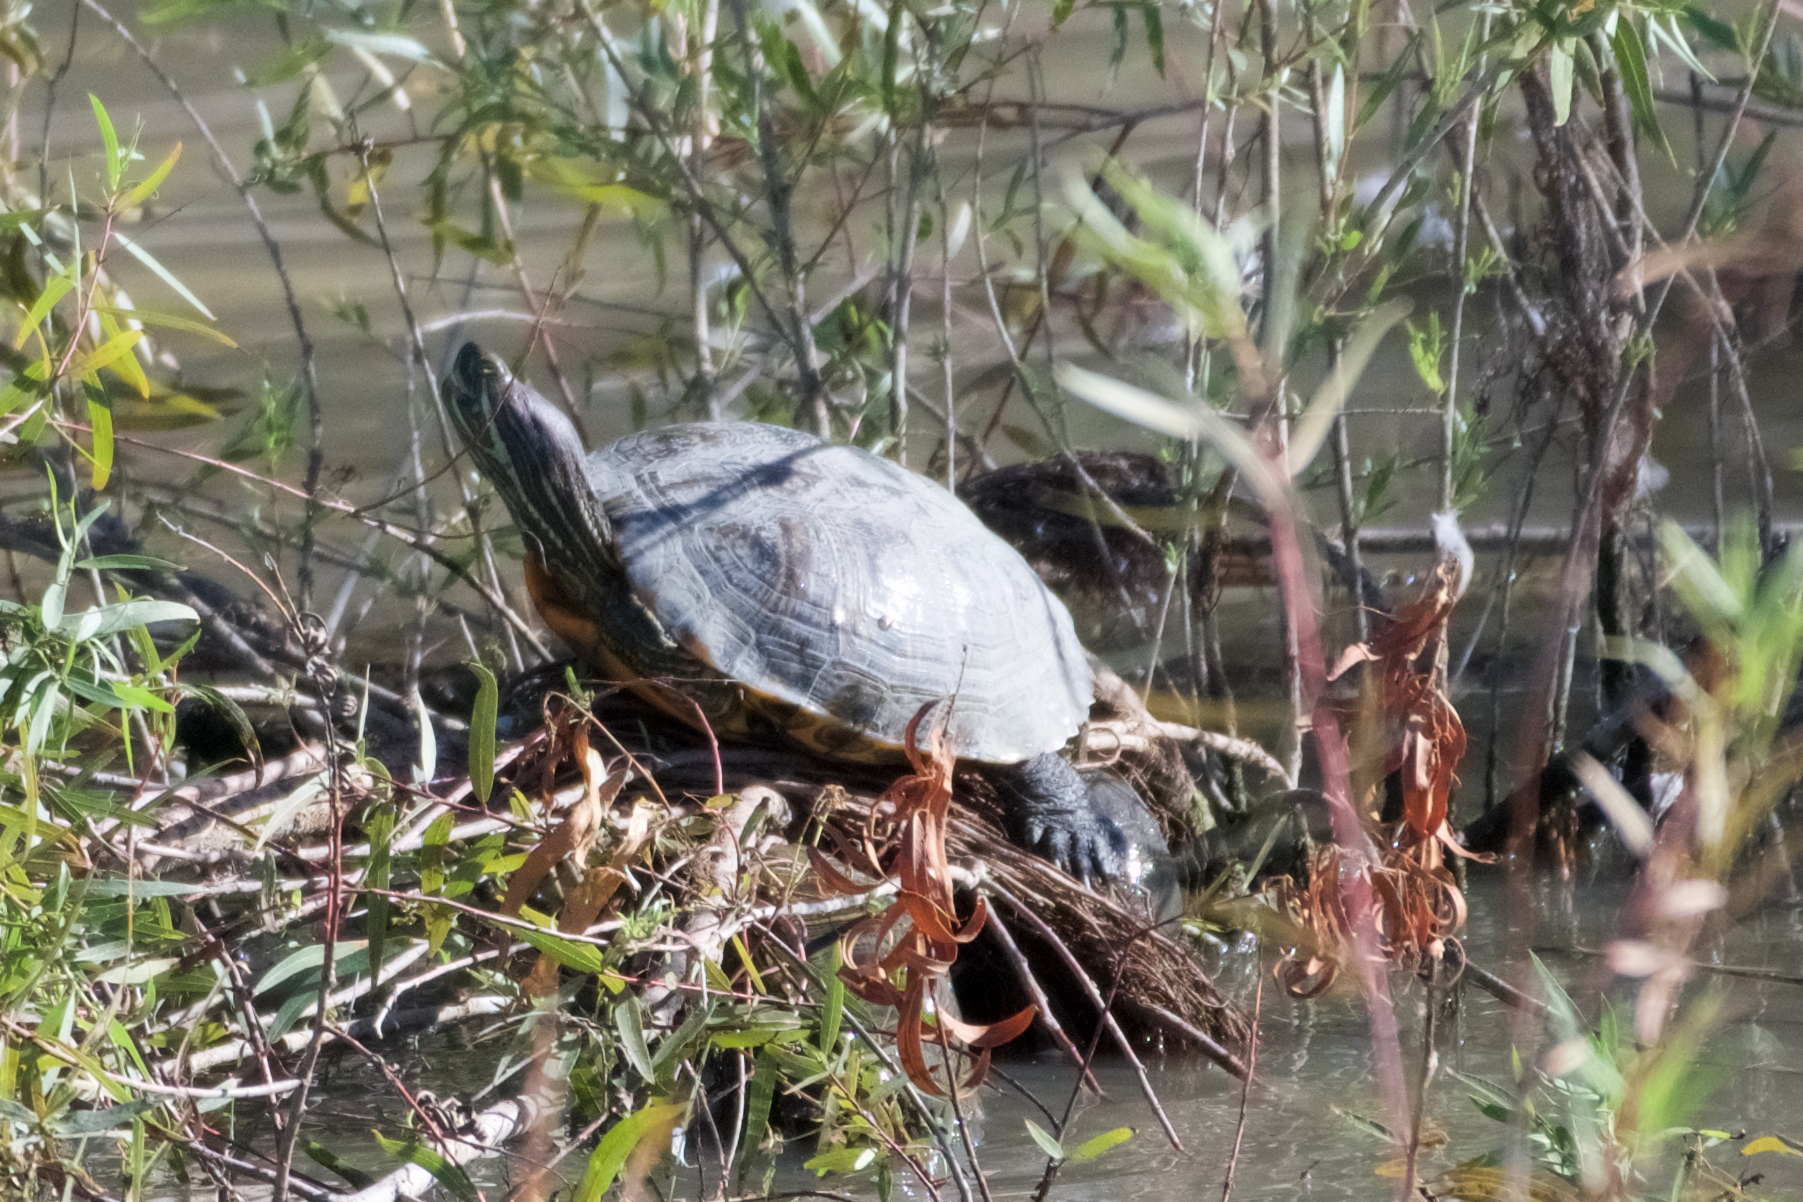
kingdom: Animalia
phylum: Chordata
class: Testudines
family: Emydidae
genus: Trachemys
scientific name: Trachemys scripta
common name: Slider
